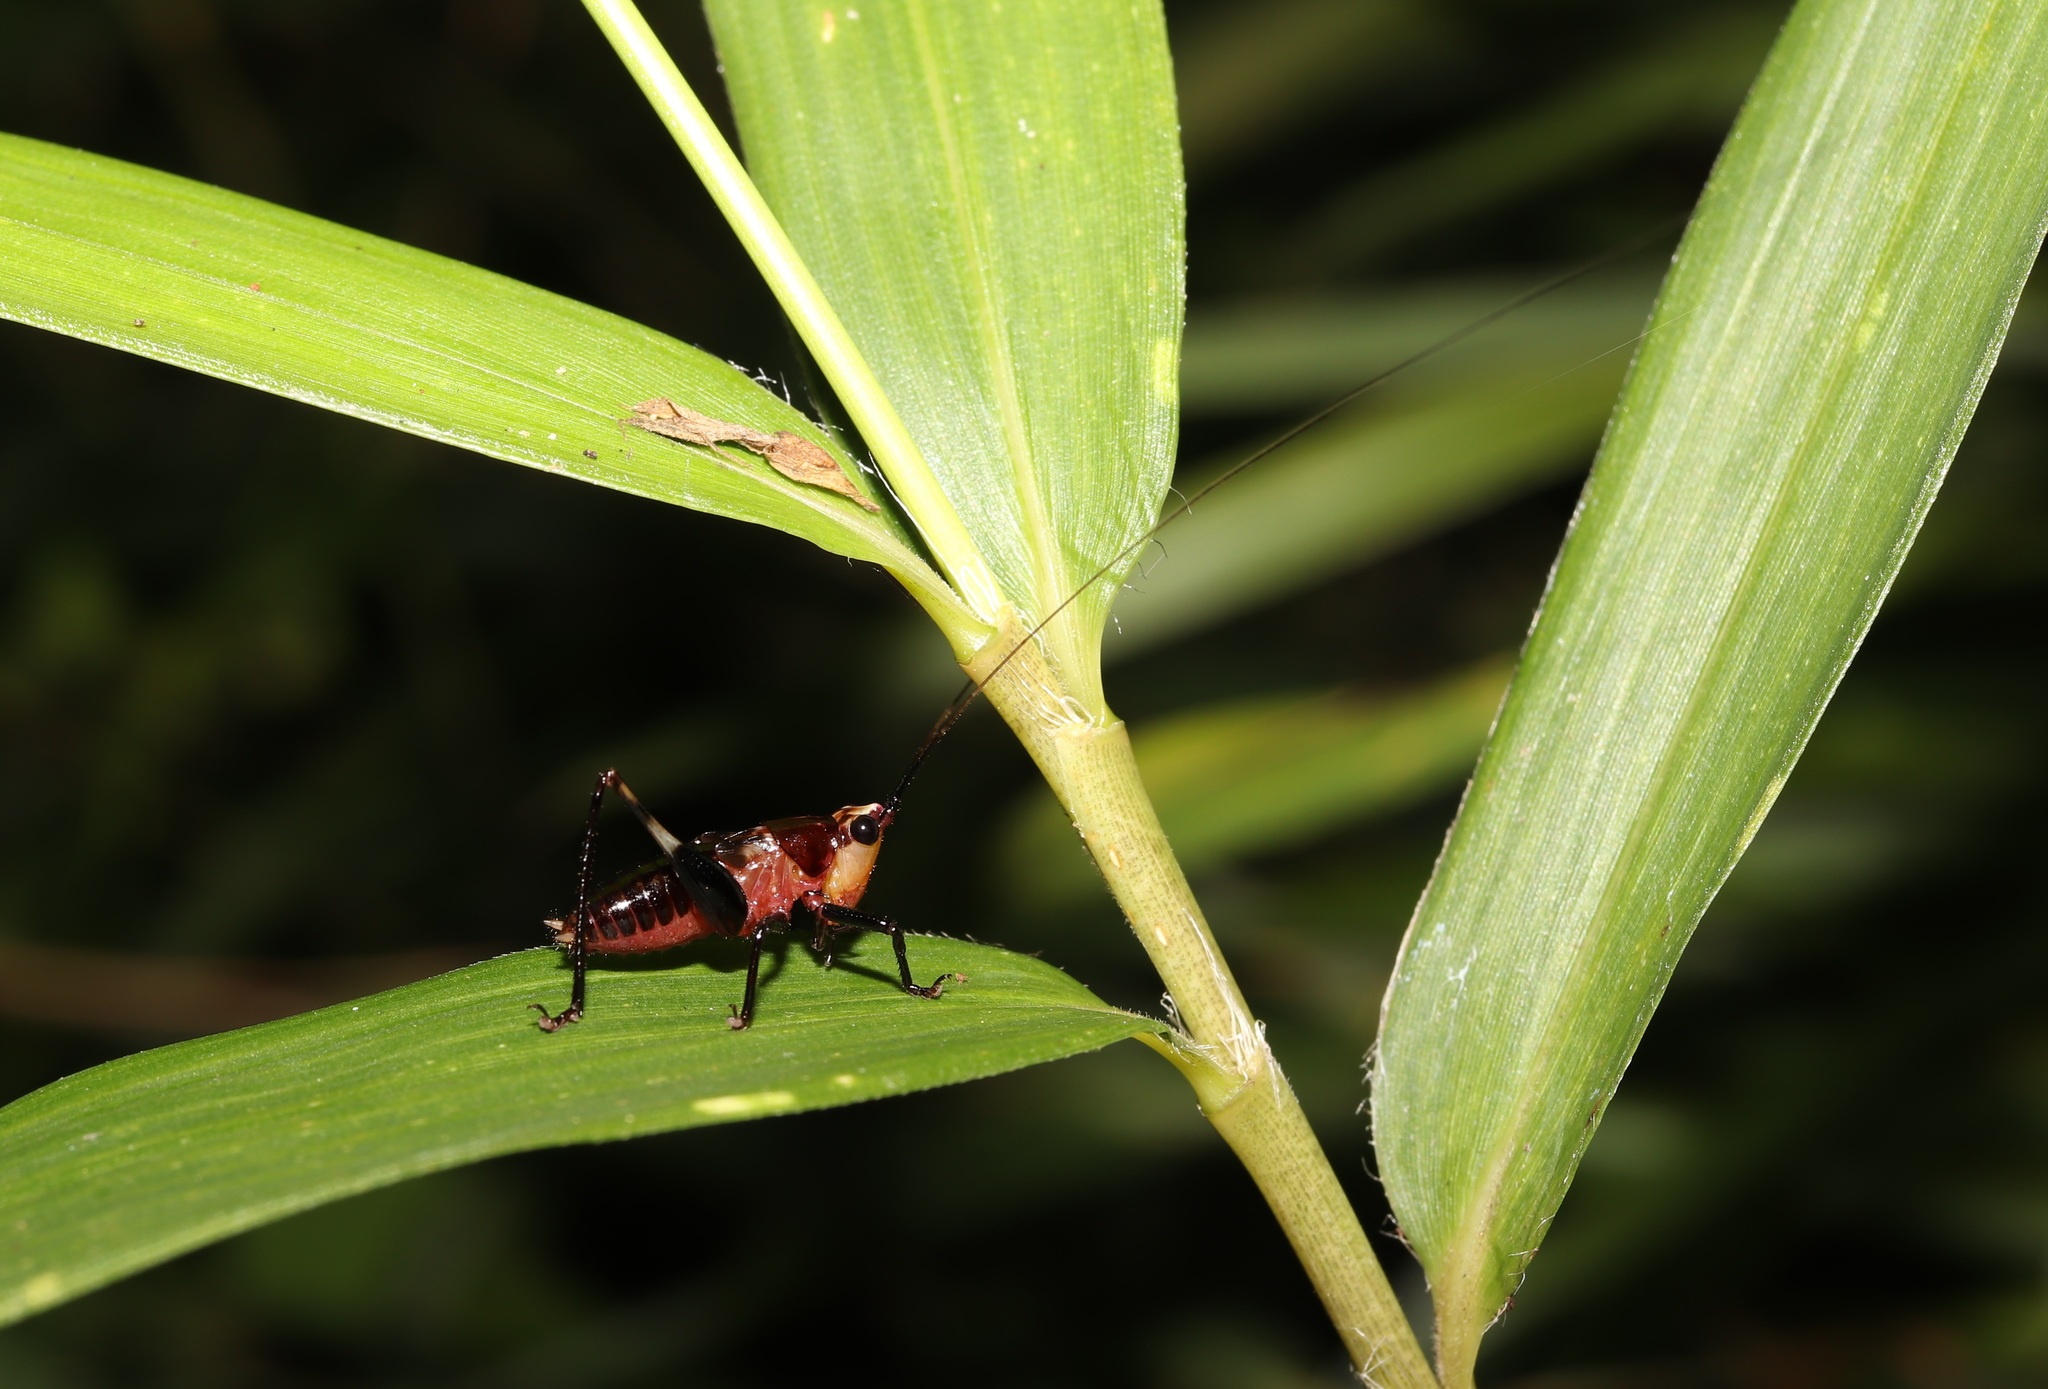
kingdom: Animalia
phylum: Arthropoda
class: Insecta
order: Orthoptera
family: Tettigoniidae
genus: Conocephalus
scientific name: Conocephalus melaenus
